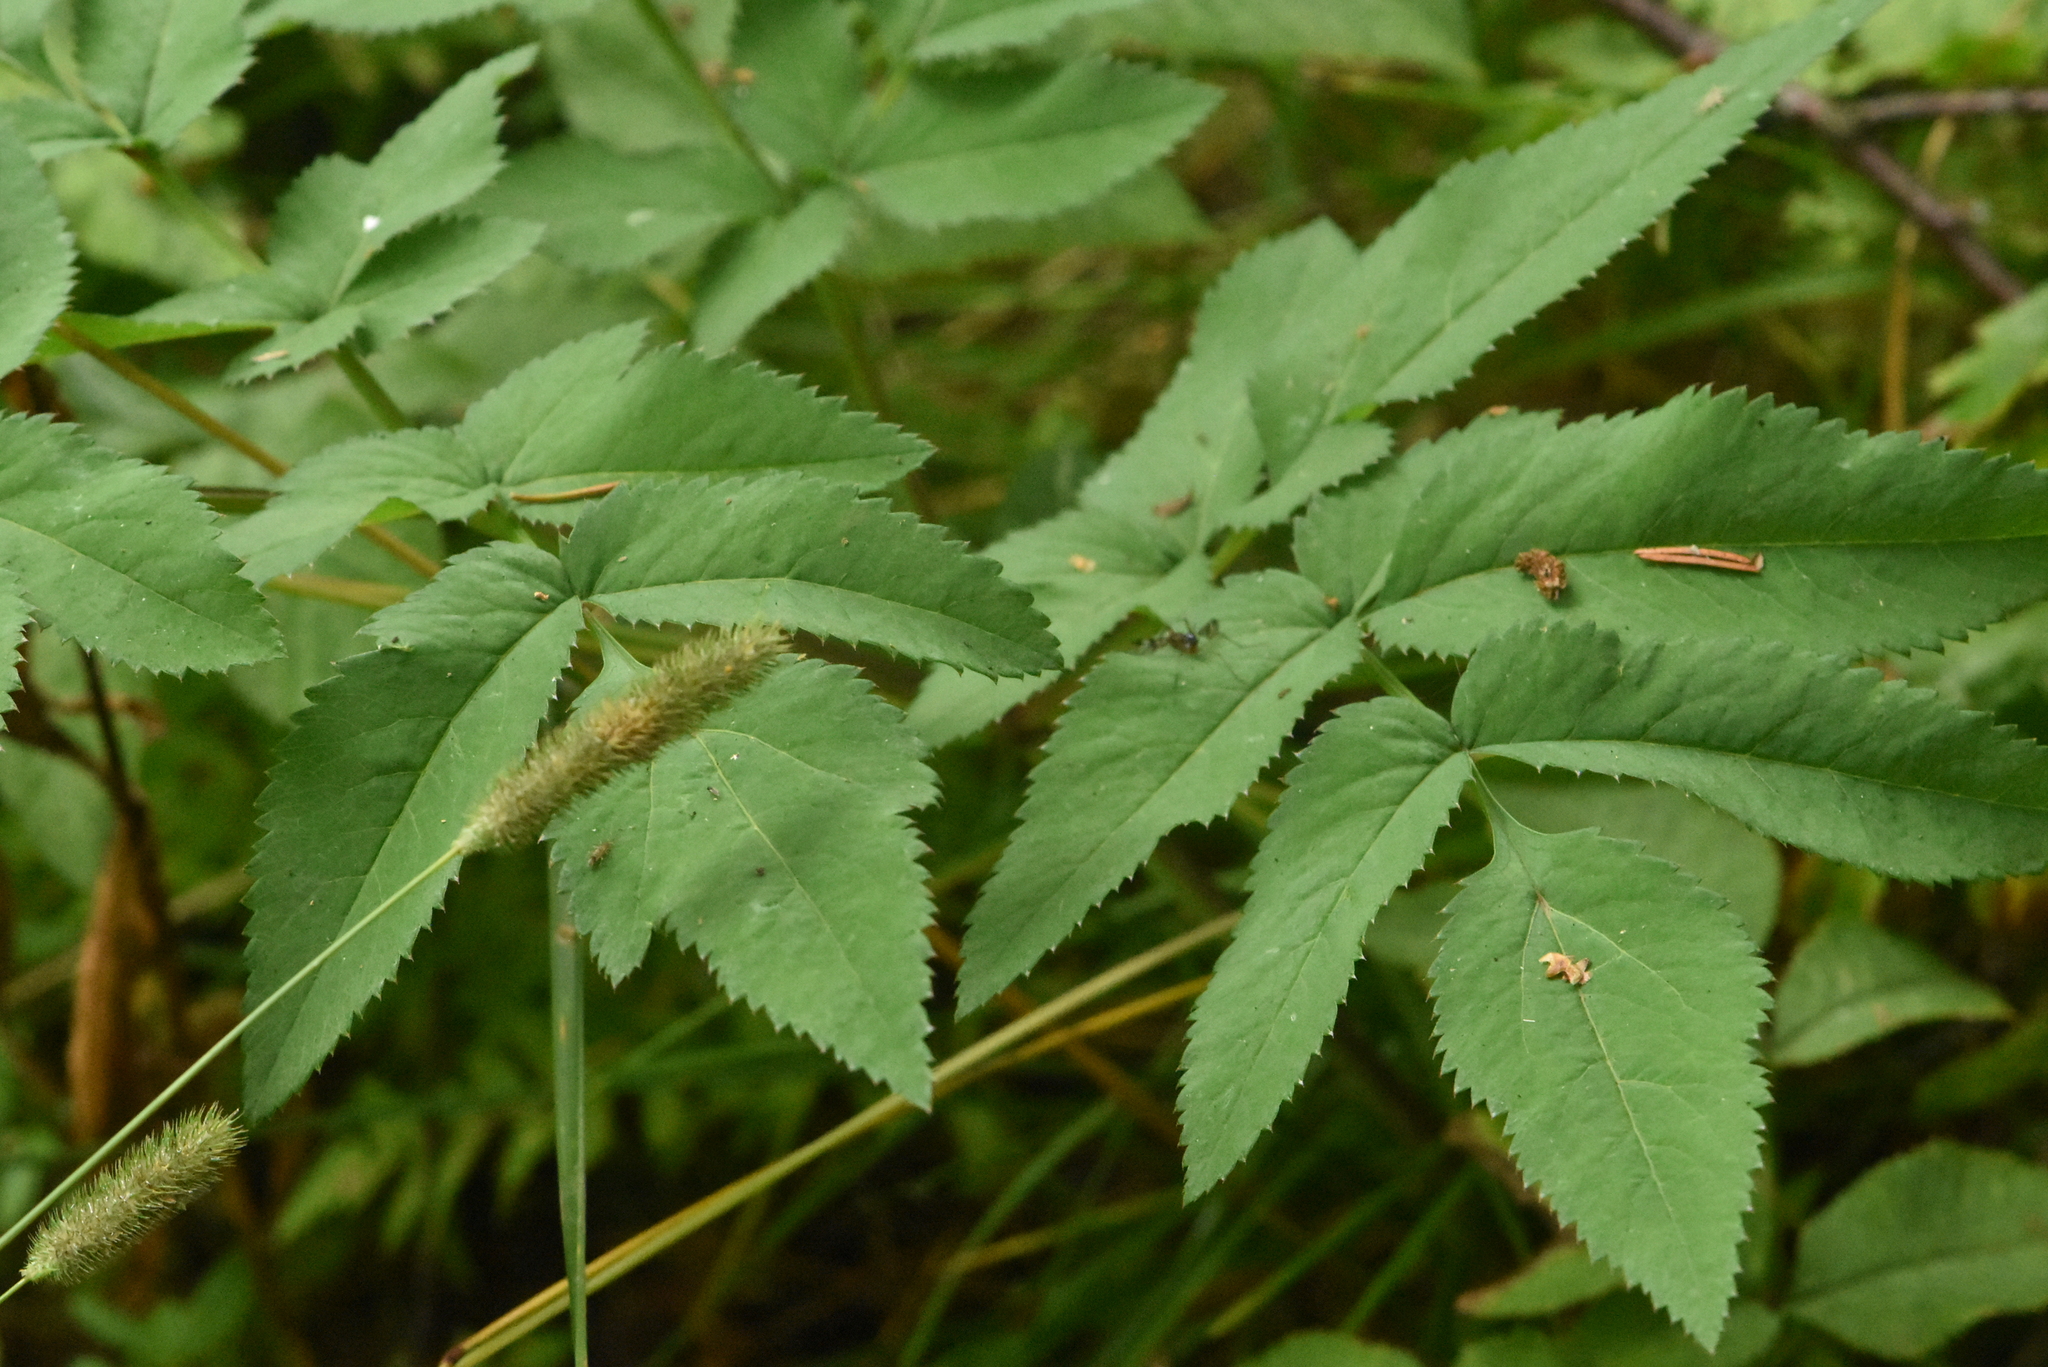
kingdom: Plantae
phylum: Tracheophyta
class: Magnoliopsida
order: Apiales
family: Apiaceae
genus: Angelica
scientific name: Angelica sylvestris
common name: Wild angelica
